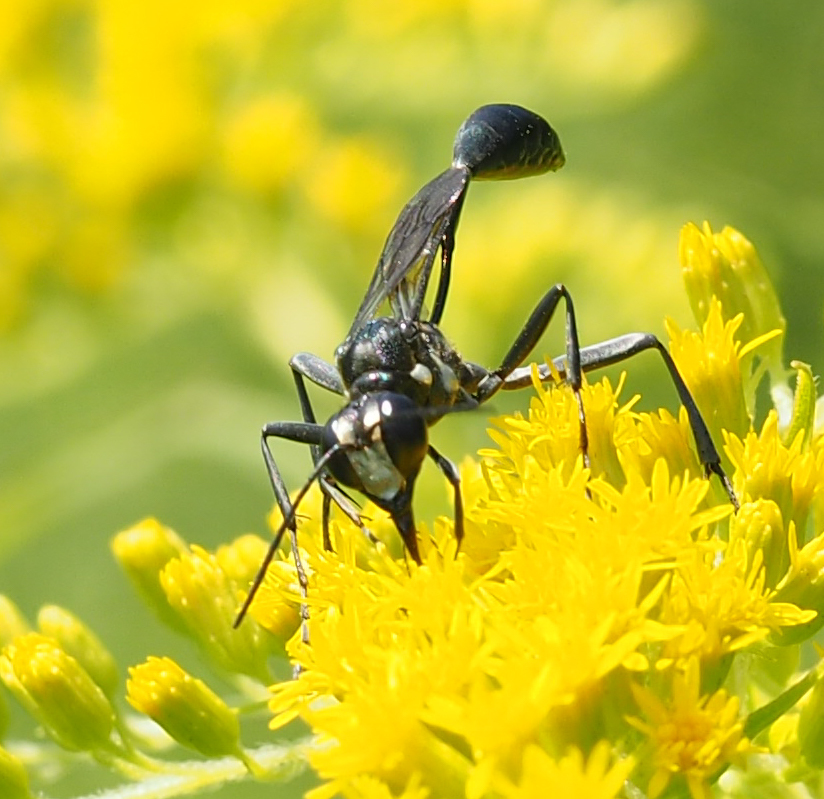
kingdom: Animalia
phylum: Arthropoda
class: Insecta
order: Hymenoptera
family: Sphecidae
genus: Eremnophila
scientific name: Eremnophila aureonotata
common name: Gold-marked thread-waisted wasp
